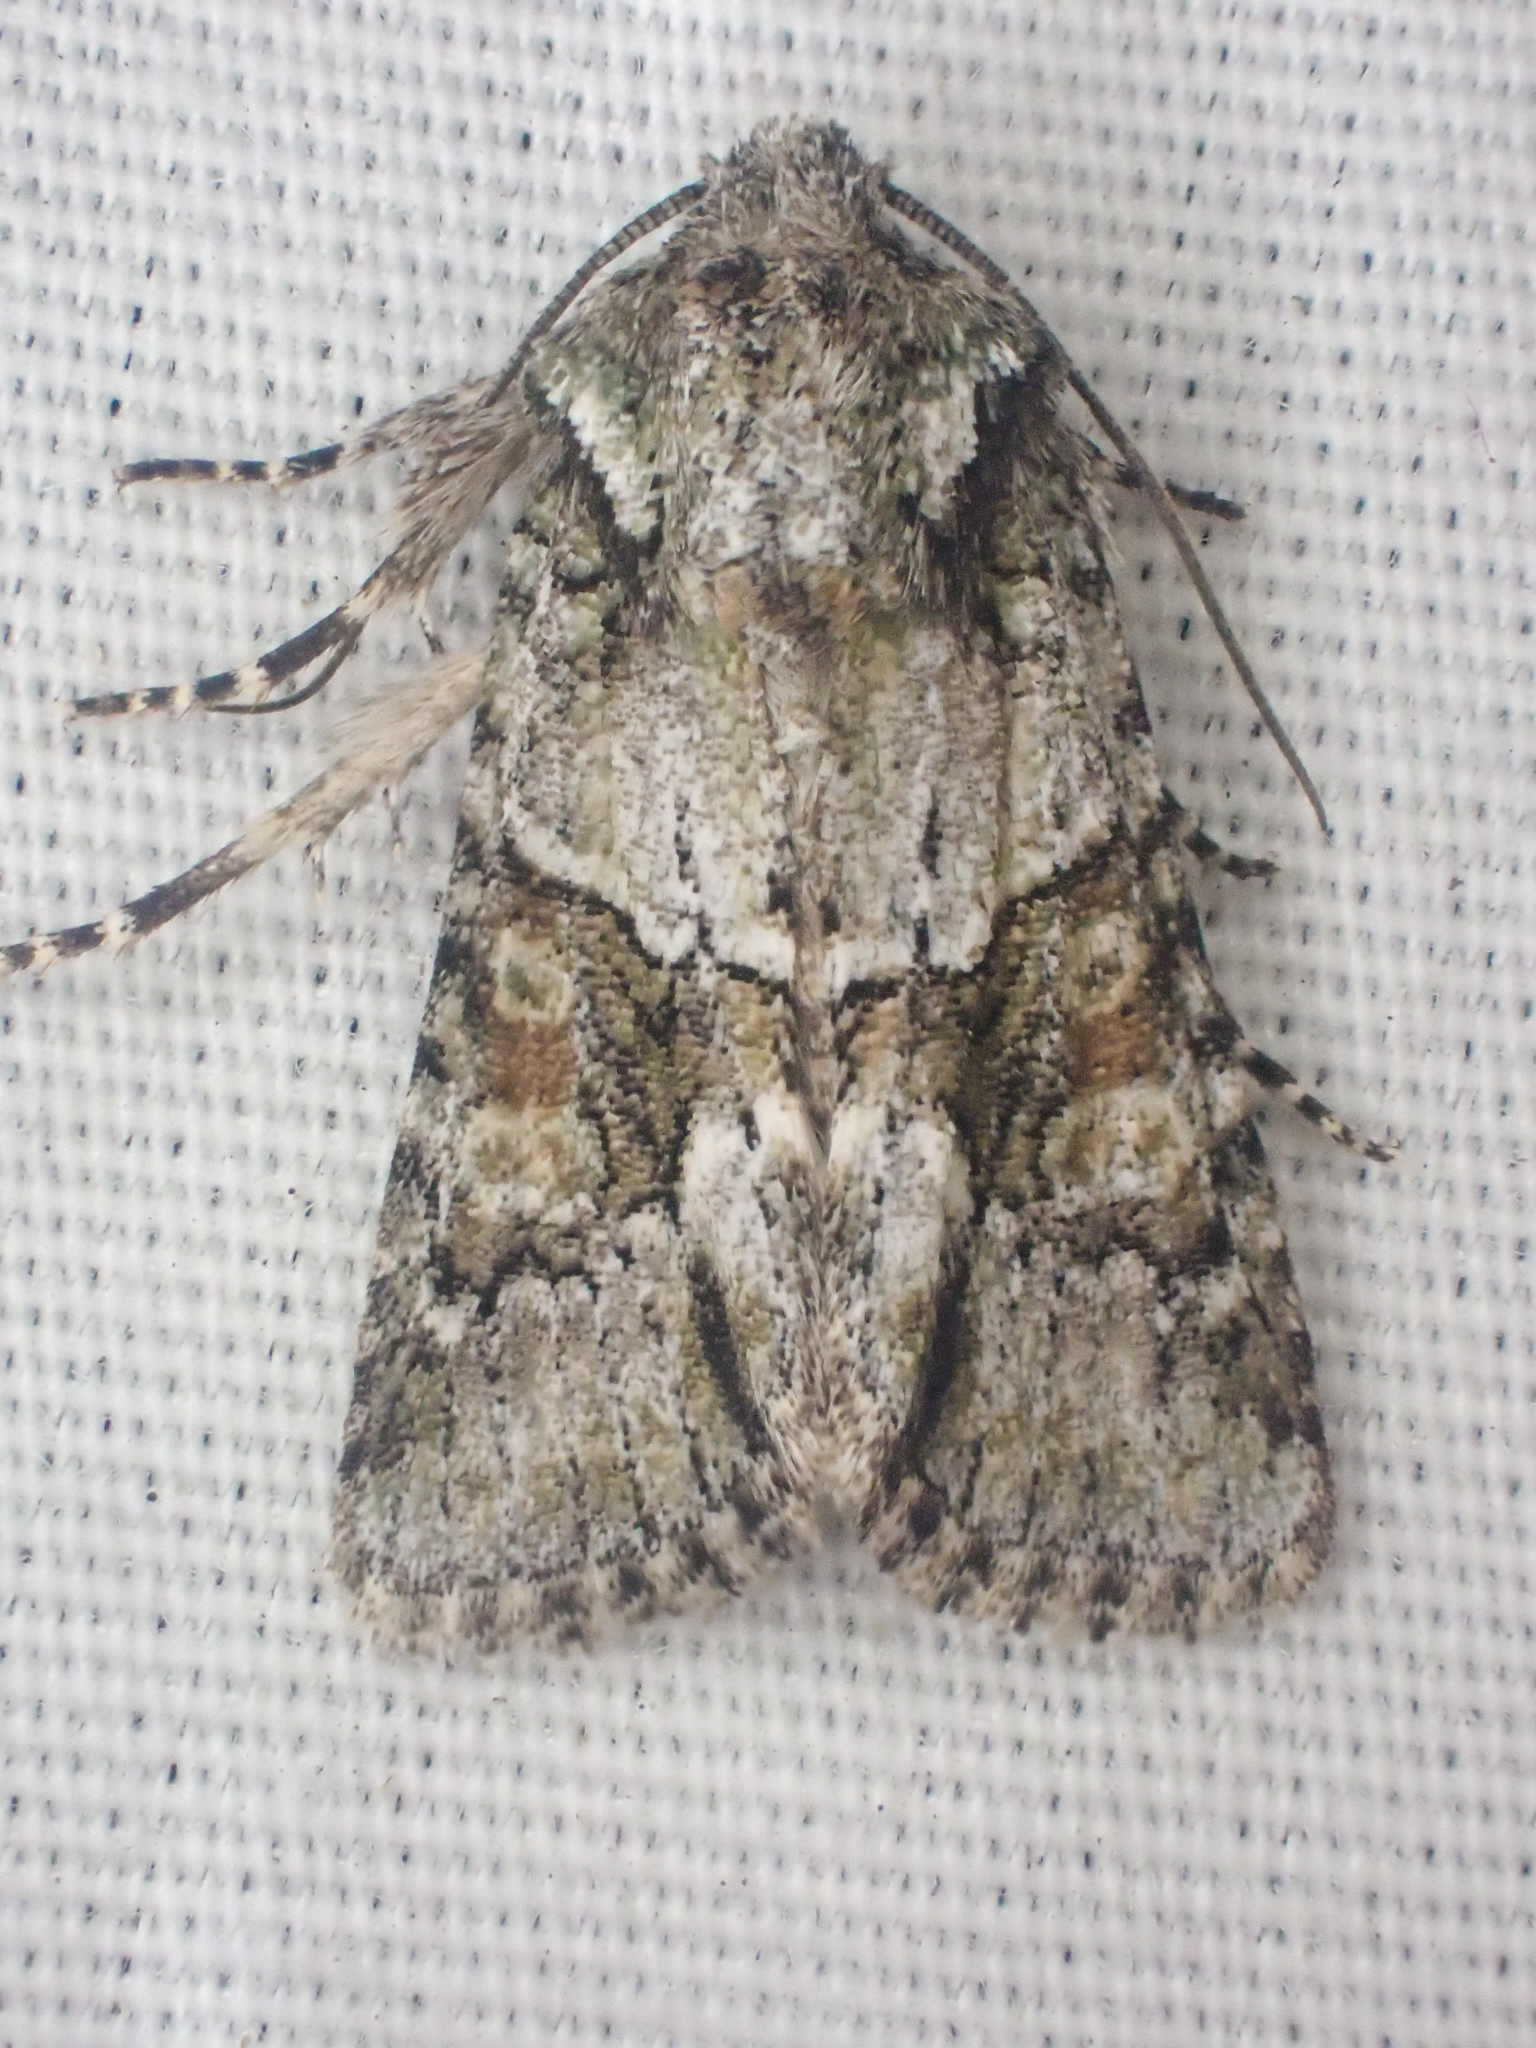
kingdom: Animalia
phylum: Arthropoda
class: Insecta
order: Lepidoptera
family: Noctuidae
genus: Lacinipolia
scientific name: Lacinipolia quadrilineata
